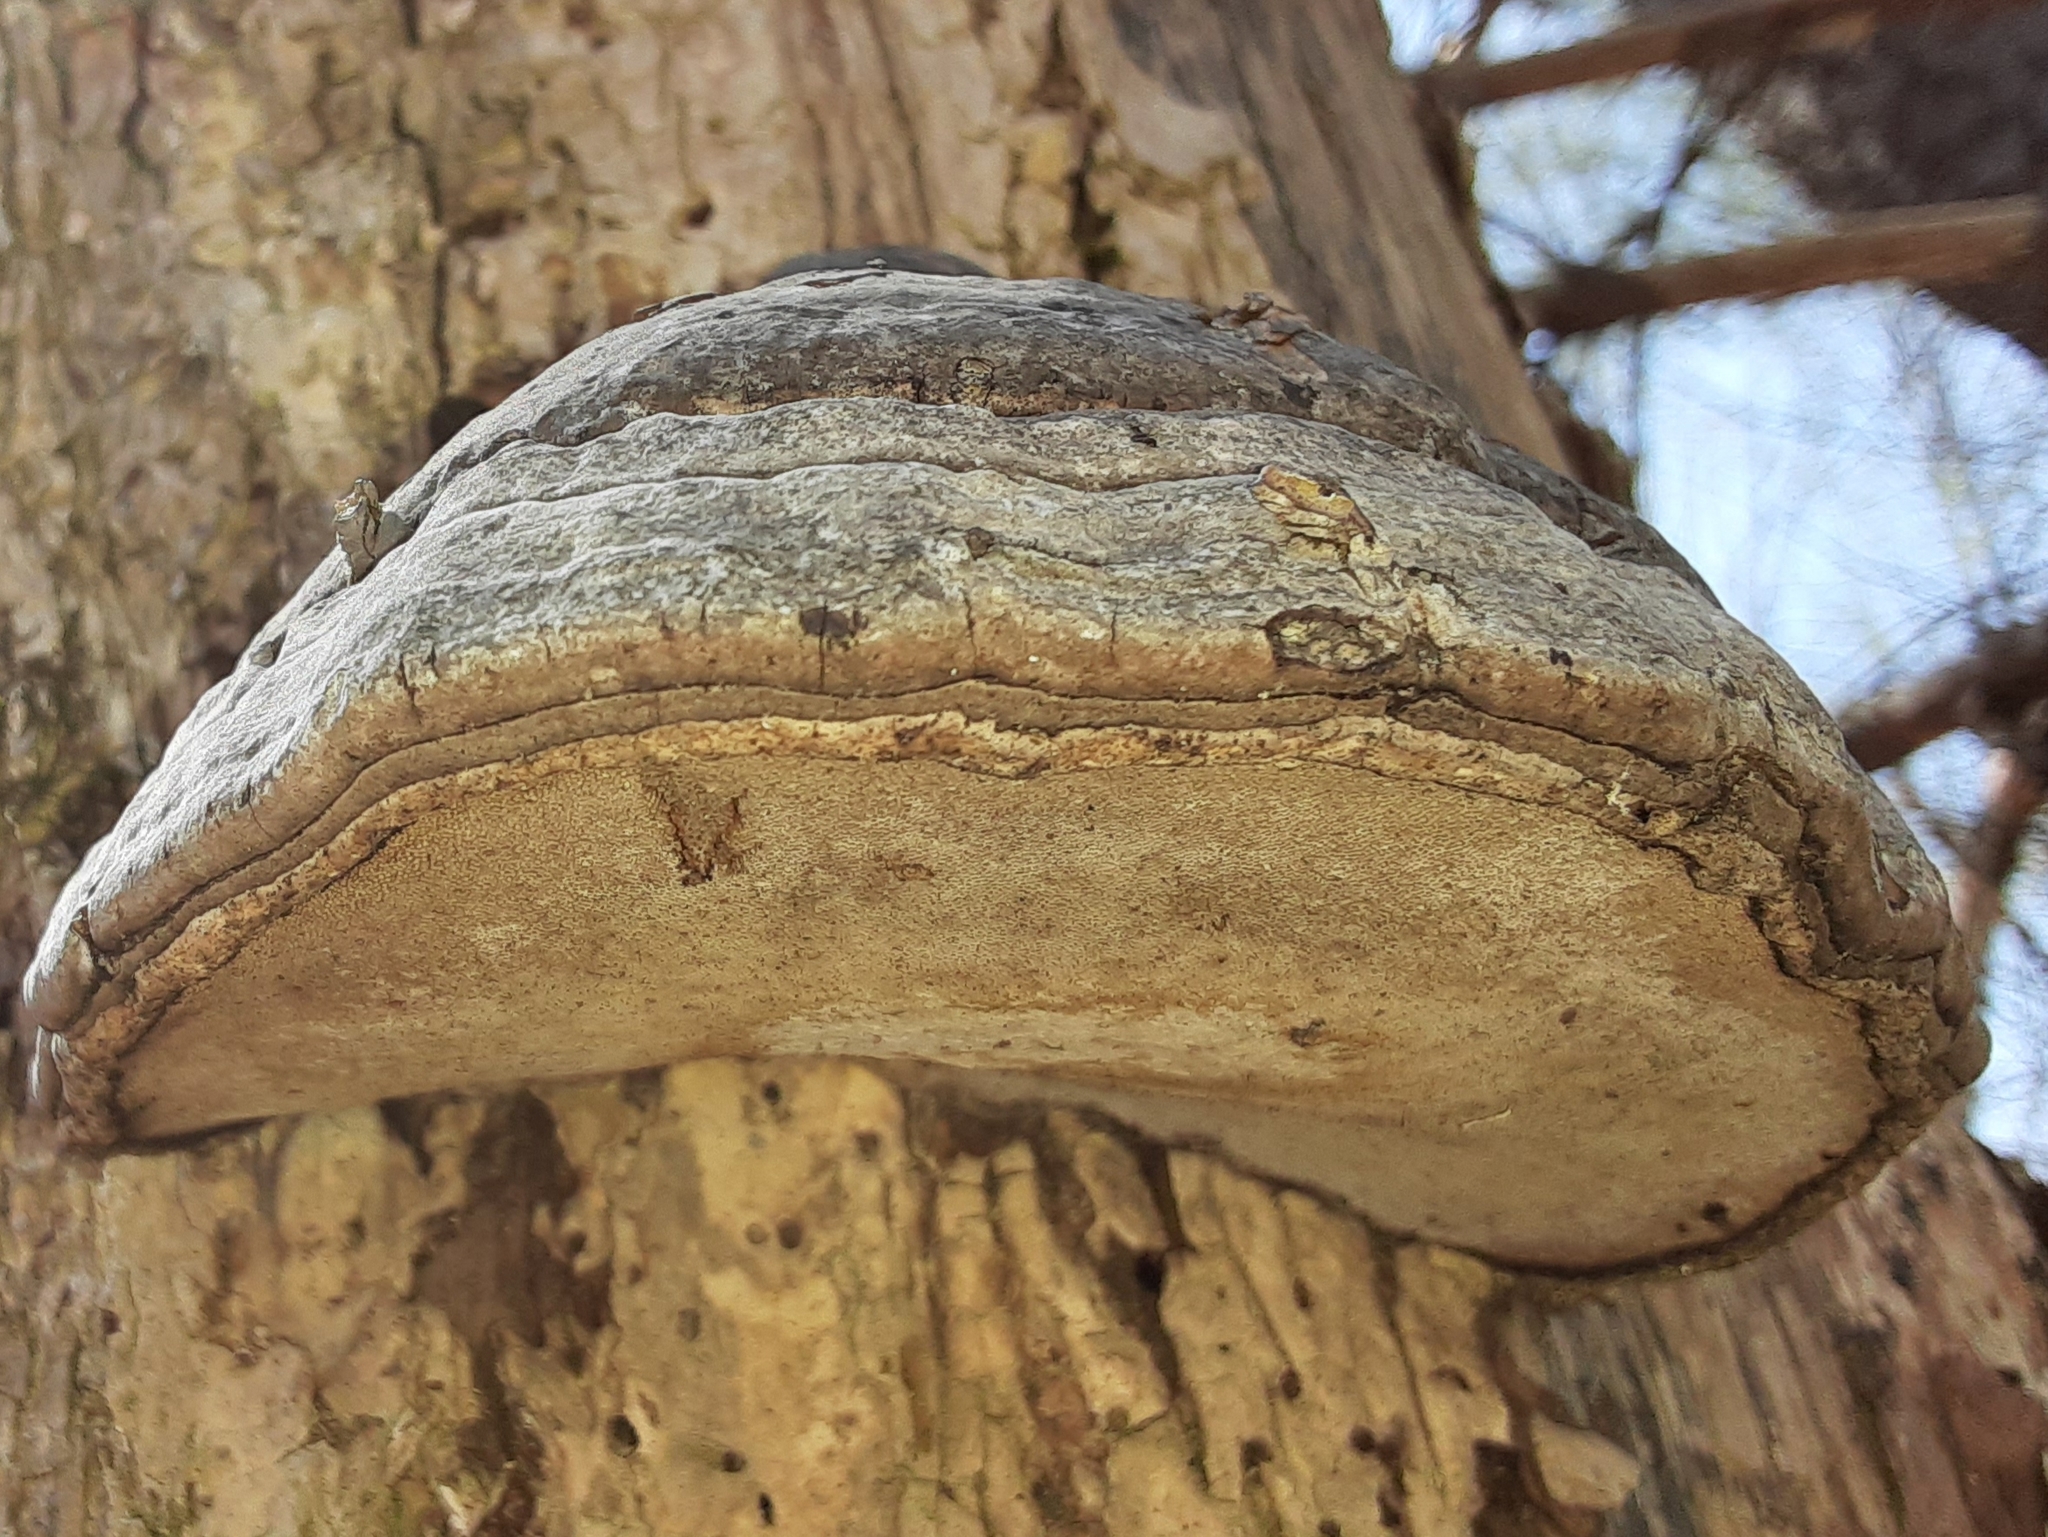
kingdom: Fungi
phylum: Basidiomycota
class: Agaricomycetes
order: Polyporales
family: Polyporaceae
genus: Fomes
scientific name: Fomes fomentarius
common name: Hoof fungus
